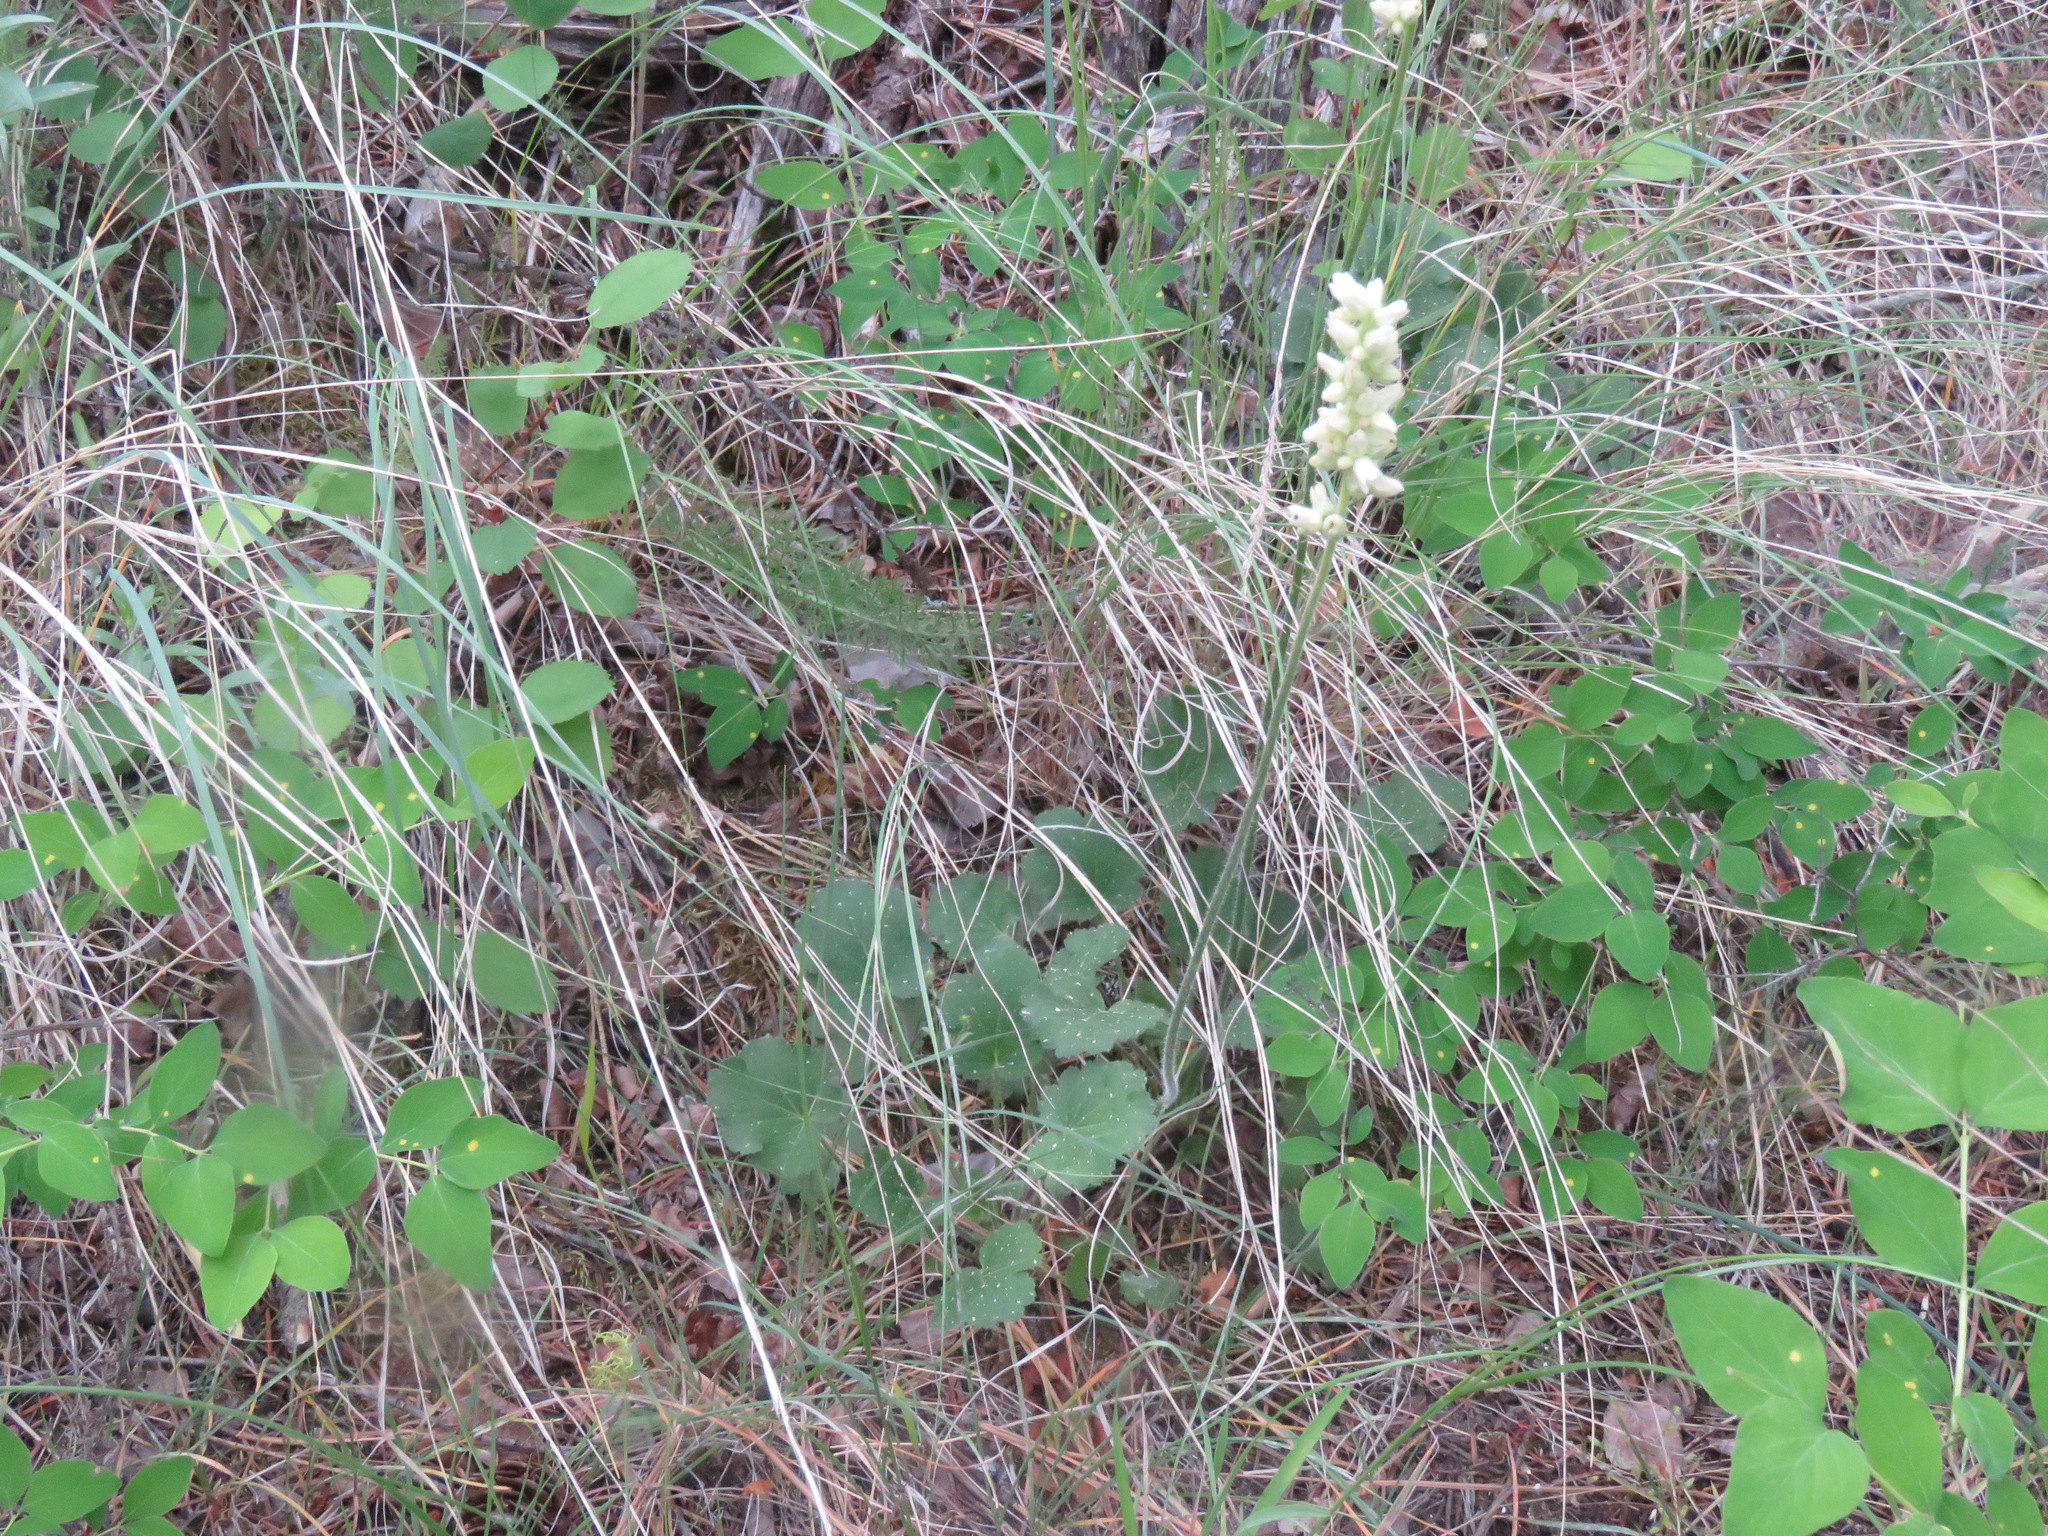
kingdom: Plantae
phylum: Tracheophyta
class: Magnoliopsida
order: Saxifragales
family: Saxifragaceae
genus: Heuchera
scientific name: Heuchera cylindrica
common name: Mat alumroot
